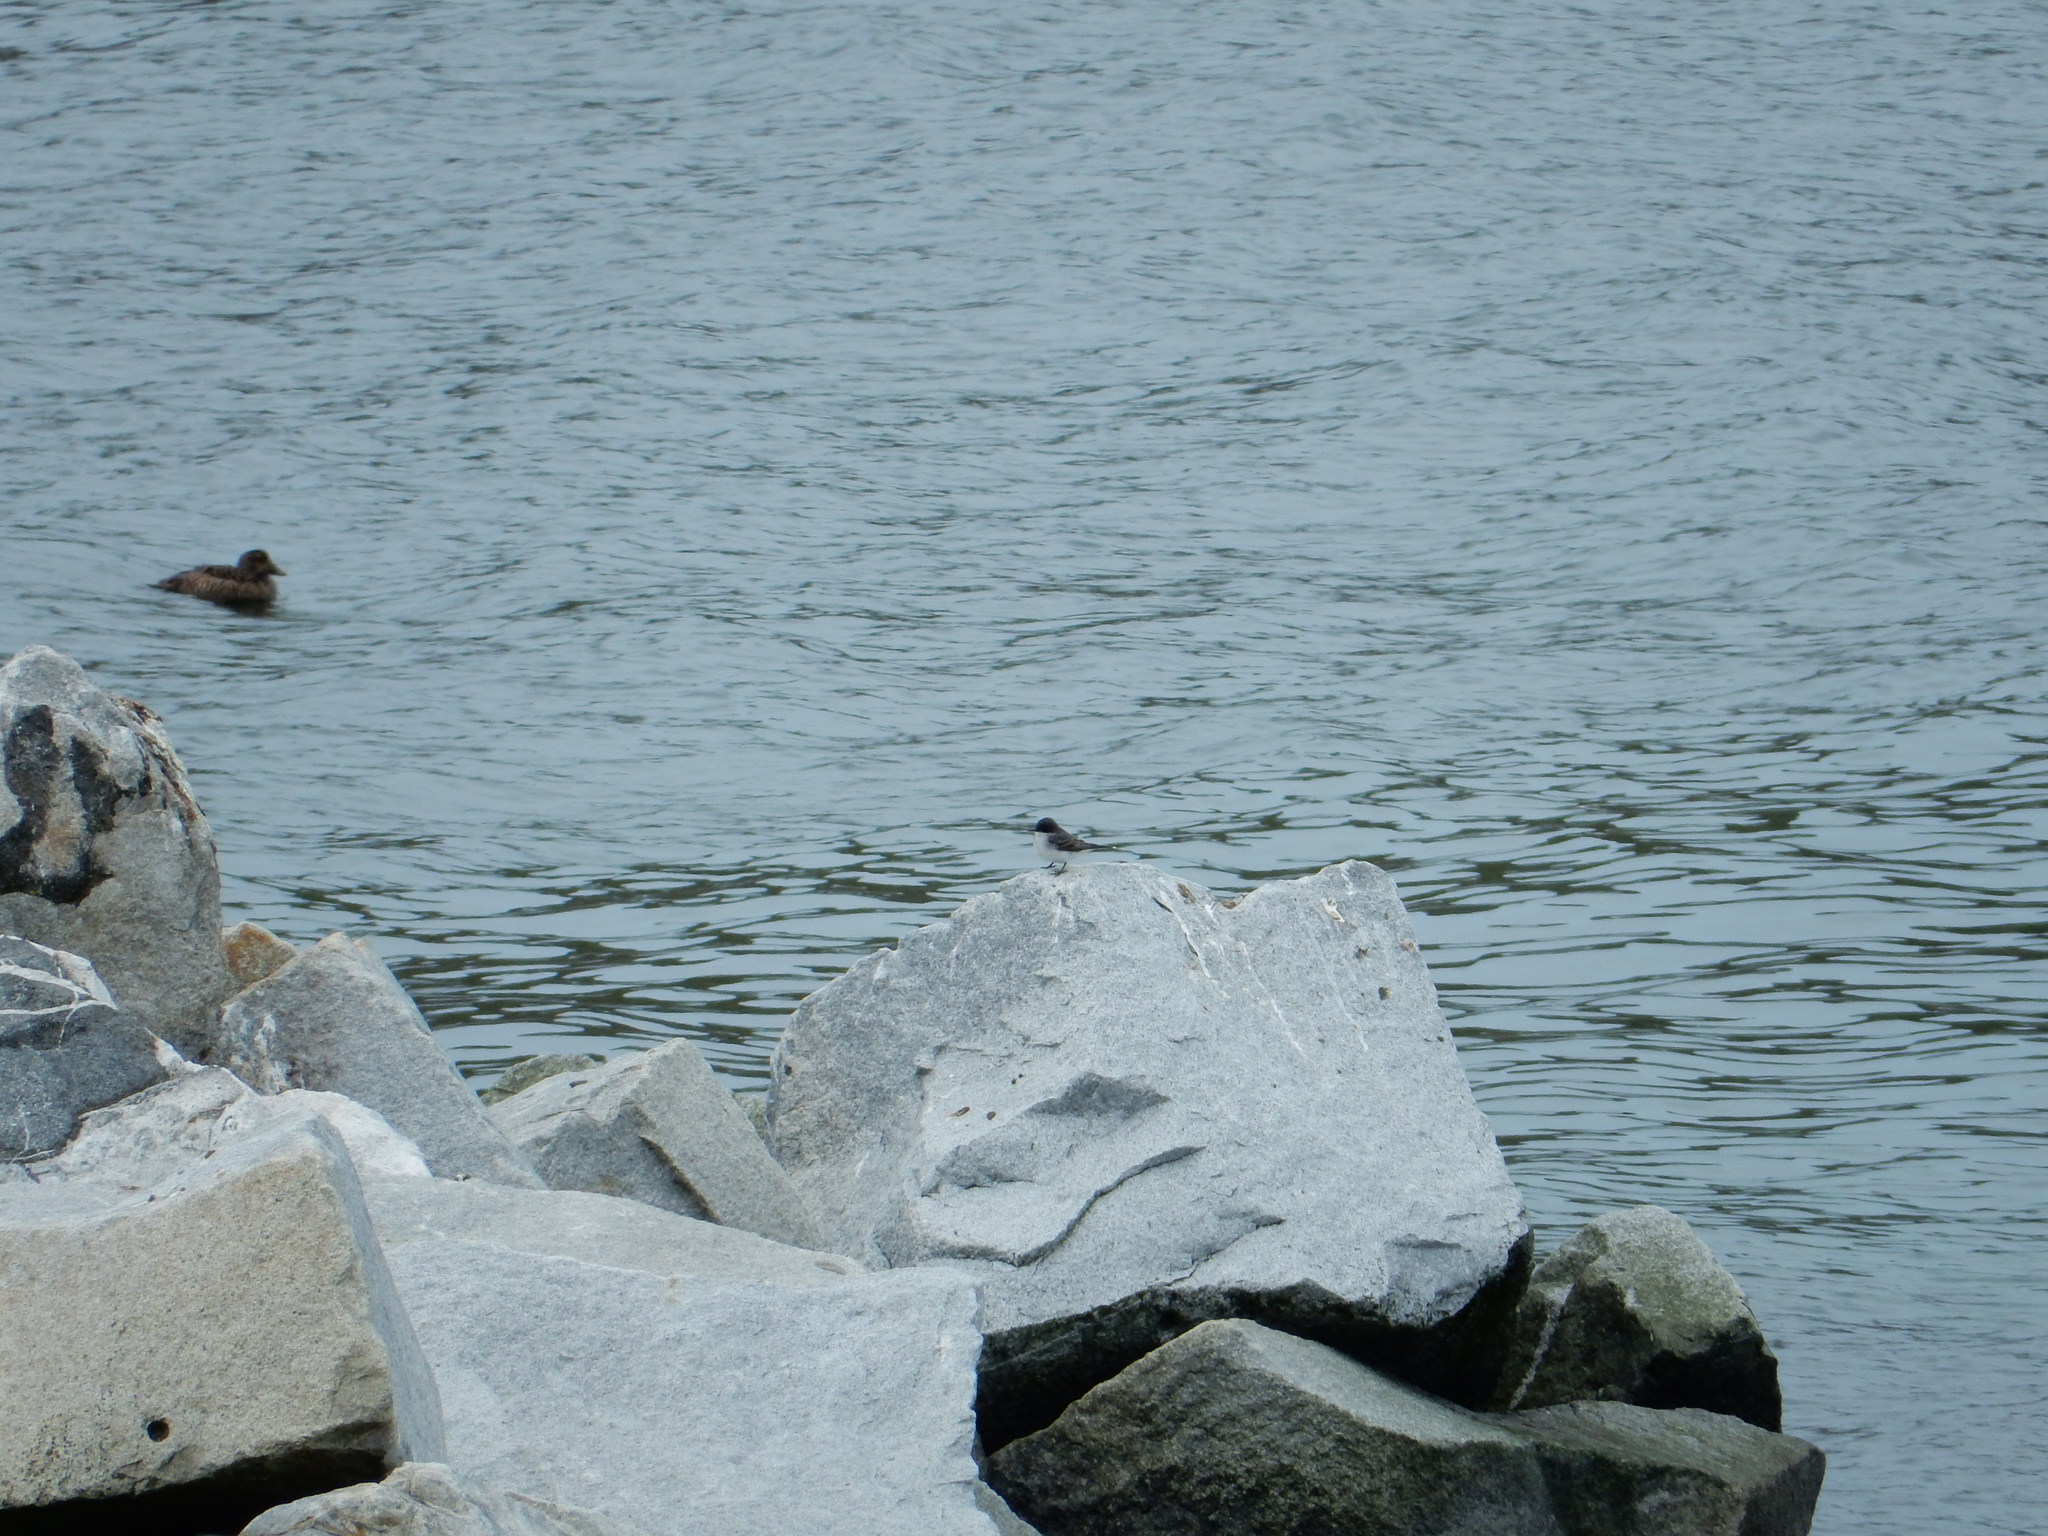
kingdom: Animalia
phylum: Chordata
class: Aves
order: Passeriformes
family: Tyrannidae
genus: Tyrannus
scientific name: Tyrannus tyrannus
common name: Eastern kingbird
